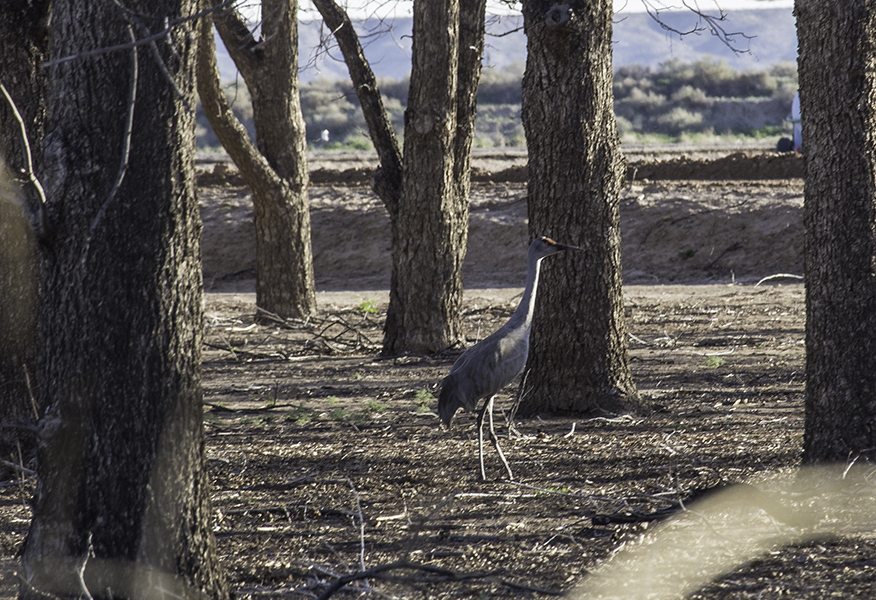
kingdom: Animalia
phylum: Chordata
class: Aves
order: Gruiformes
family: Gruidae
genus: Grus
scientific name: Grus canadensis
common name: Sandhill crane
